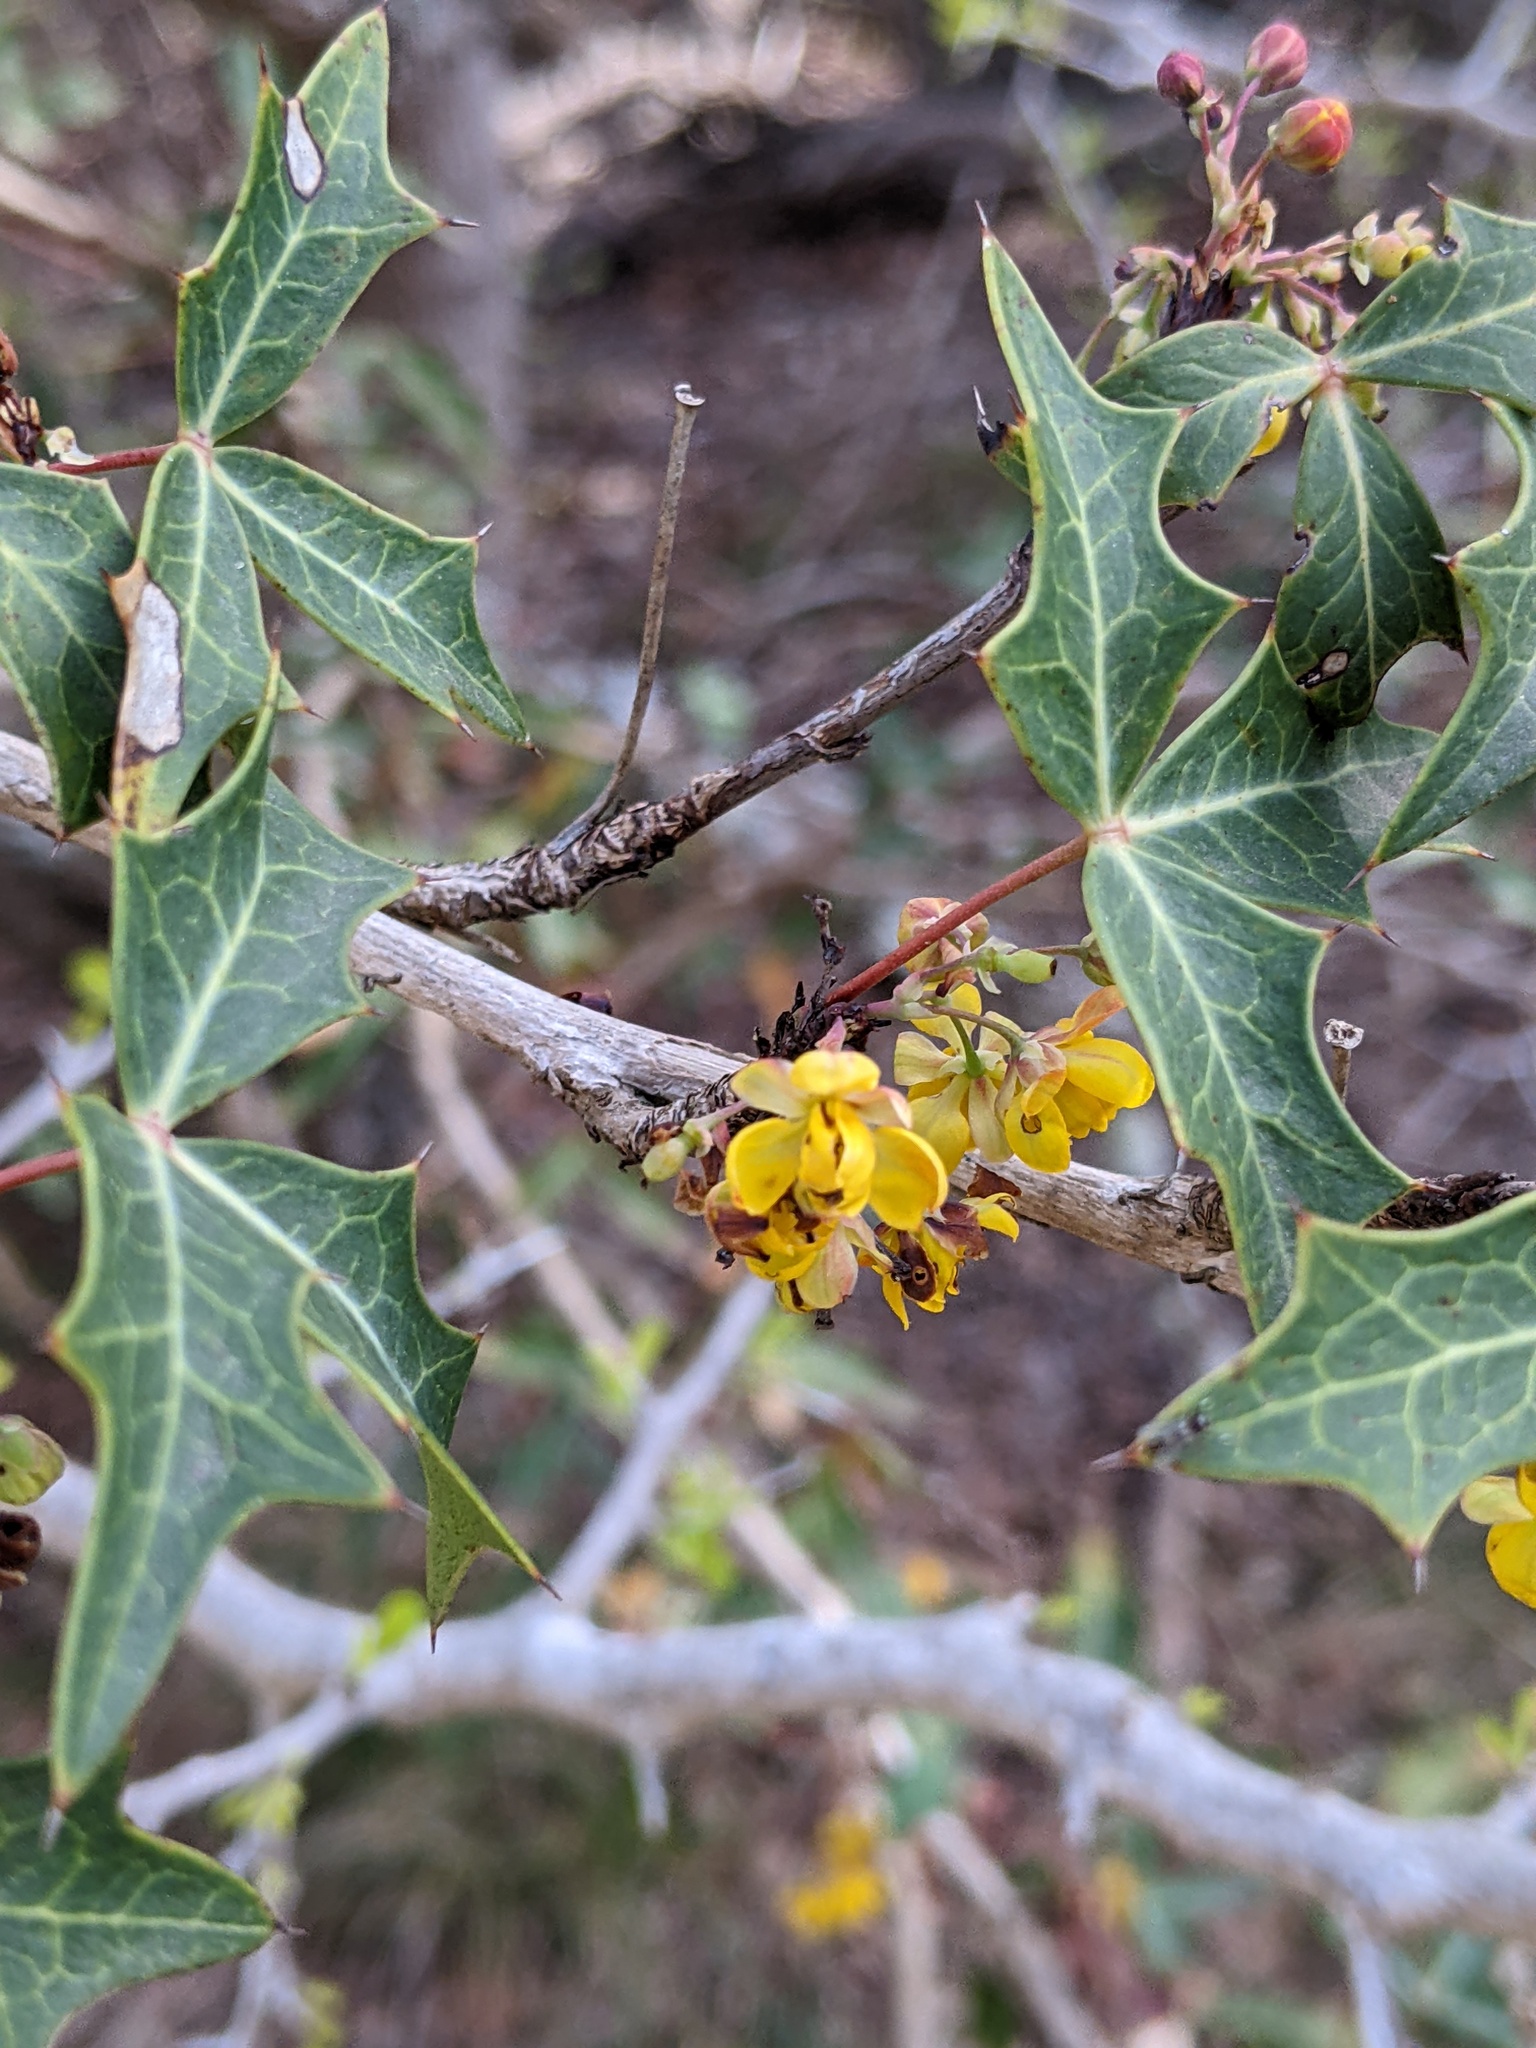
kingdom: Plantae
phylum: Tracheophyta
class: Magnoliopsida
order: Ranunculales
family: Berberidaceae
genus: Alloberberis
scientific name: Alloberberis trifoliolata
